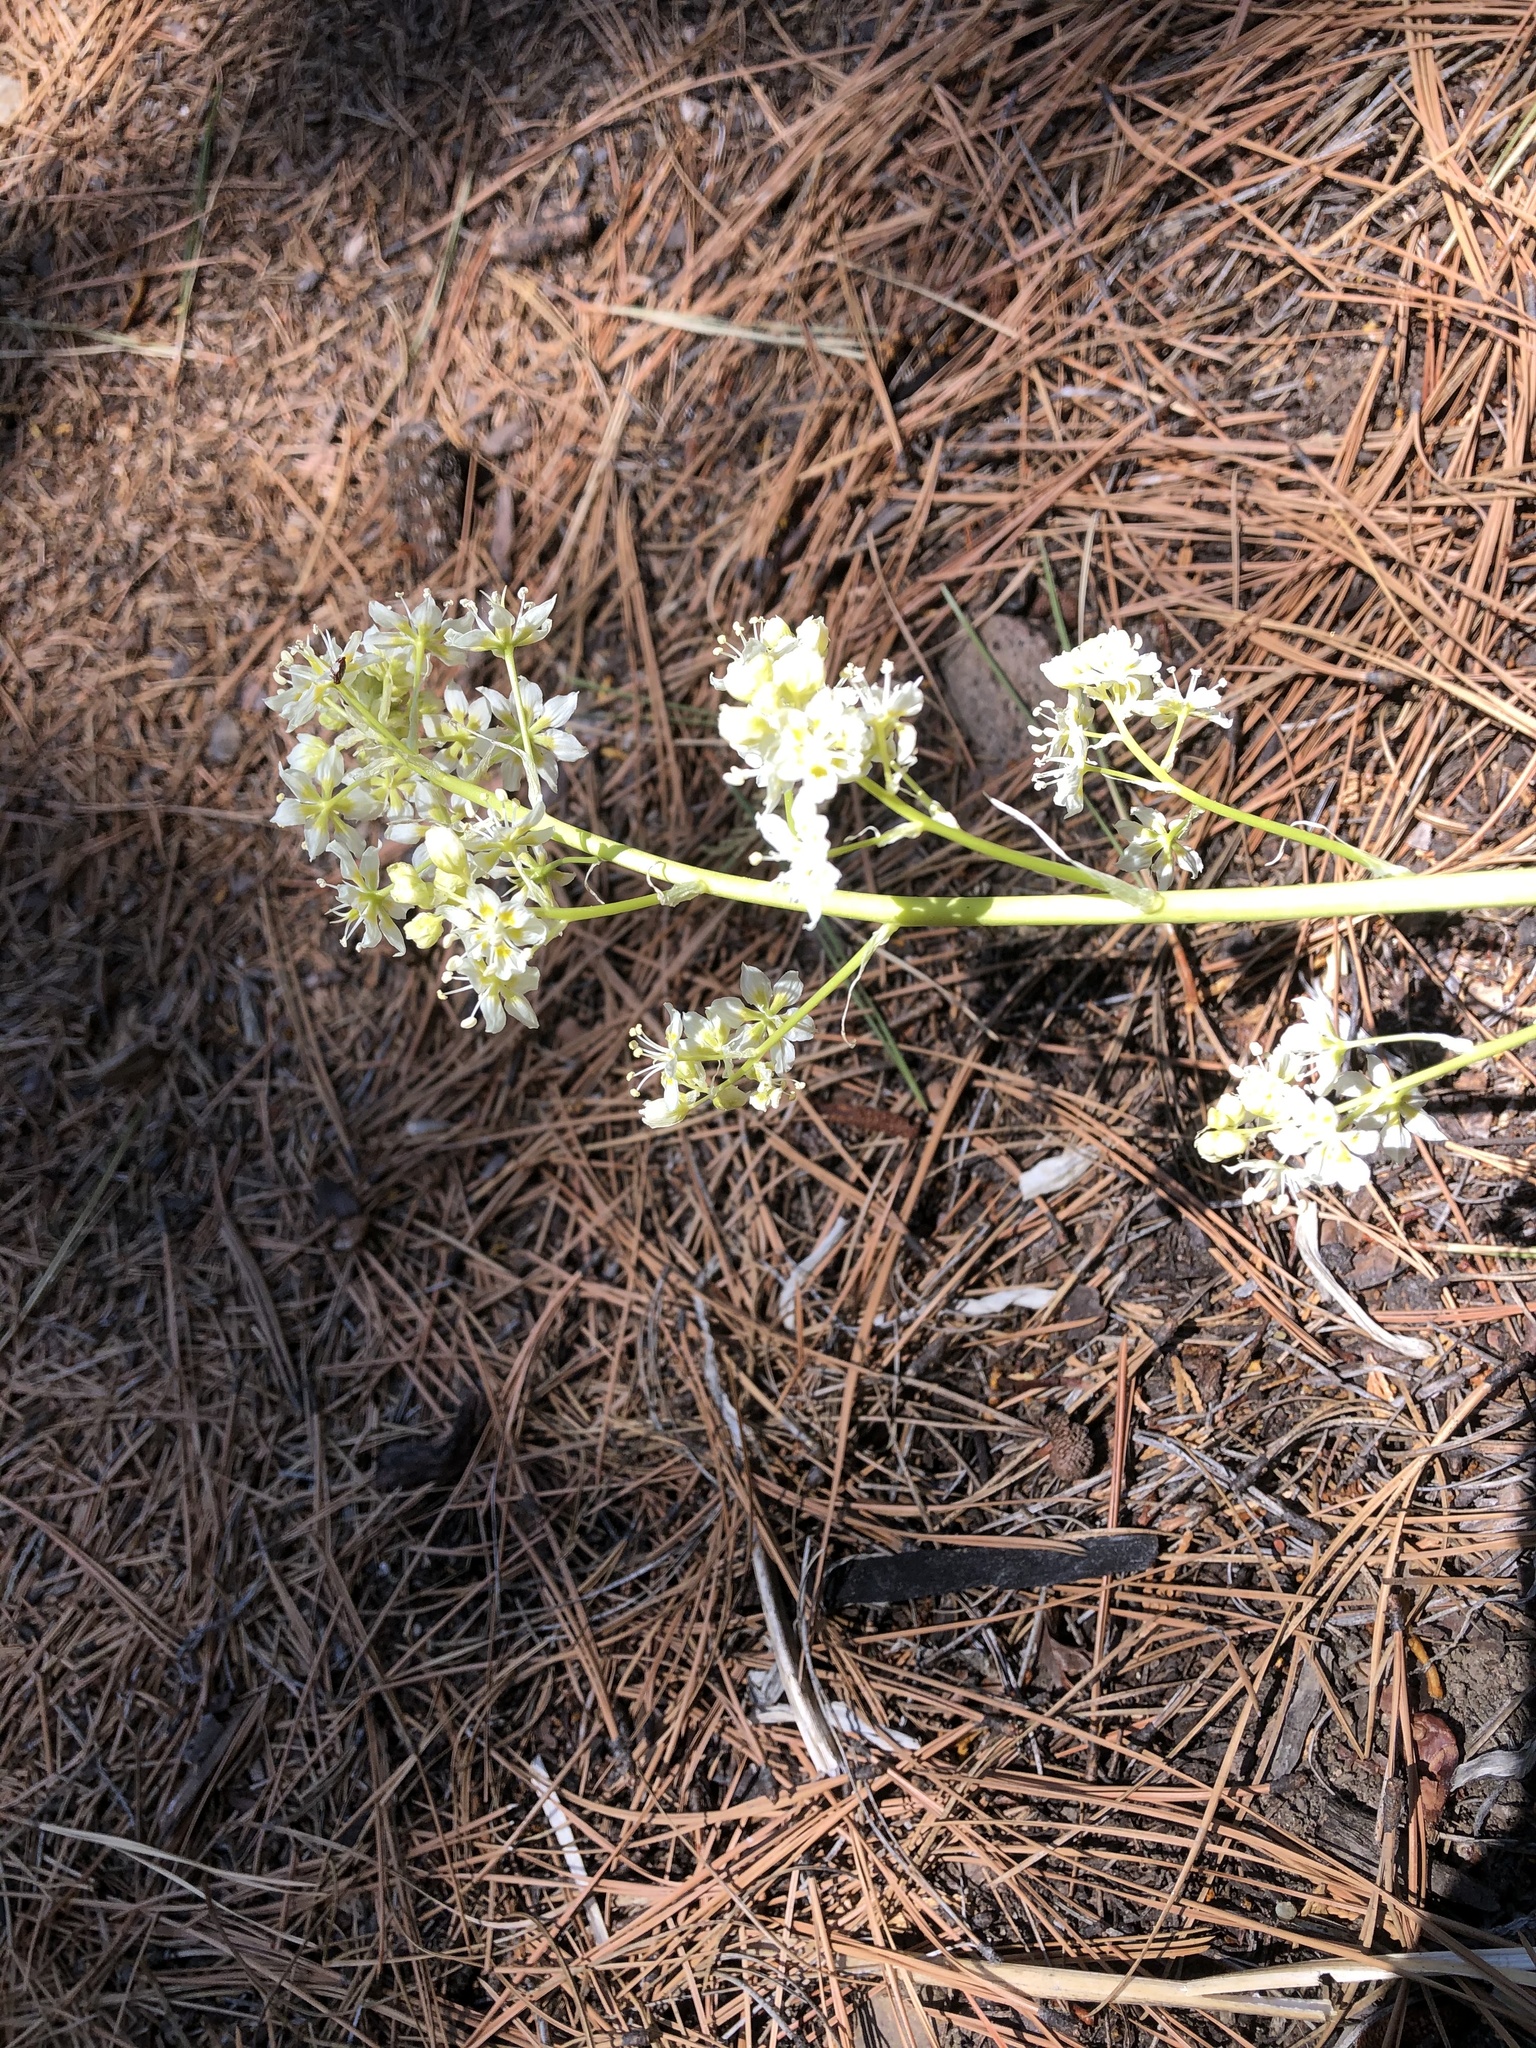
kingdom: Plantae
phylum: Tracheophyta
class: Liliopsida
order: Liliales
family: Melanthiaceae
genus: Toxicoscordion
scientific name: Toxicoscordion paniculatum
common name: Foothill death camas
